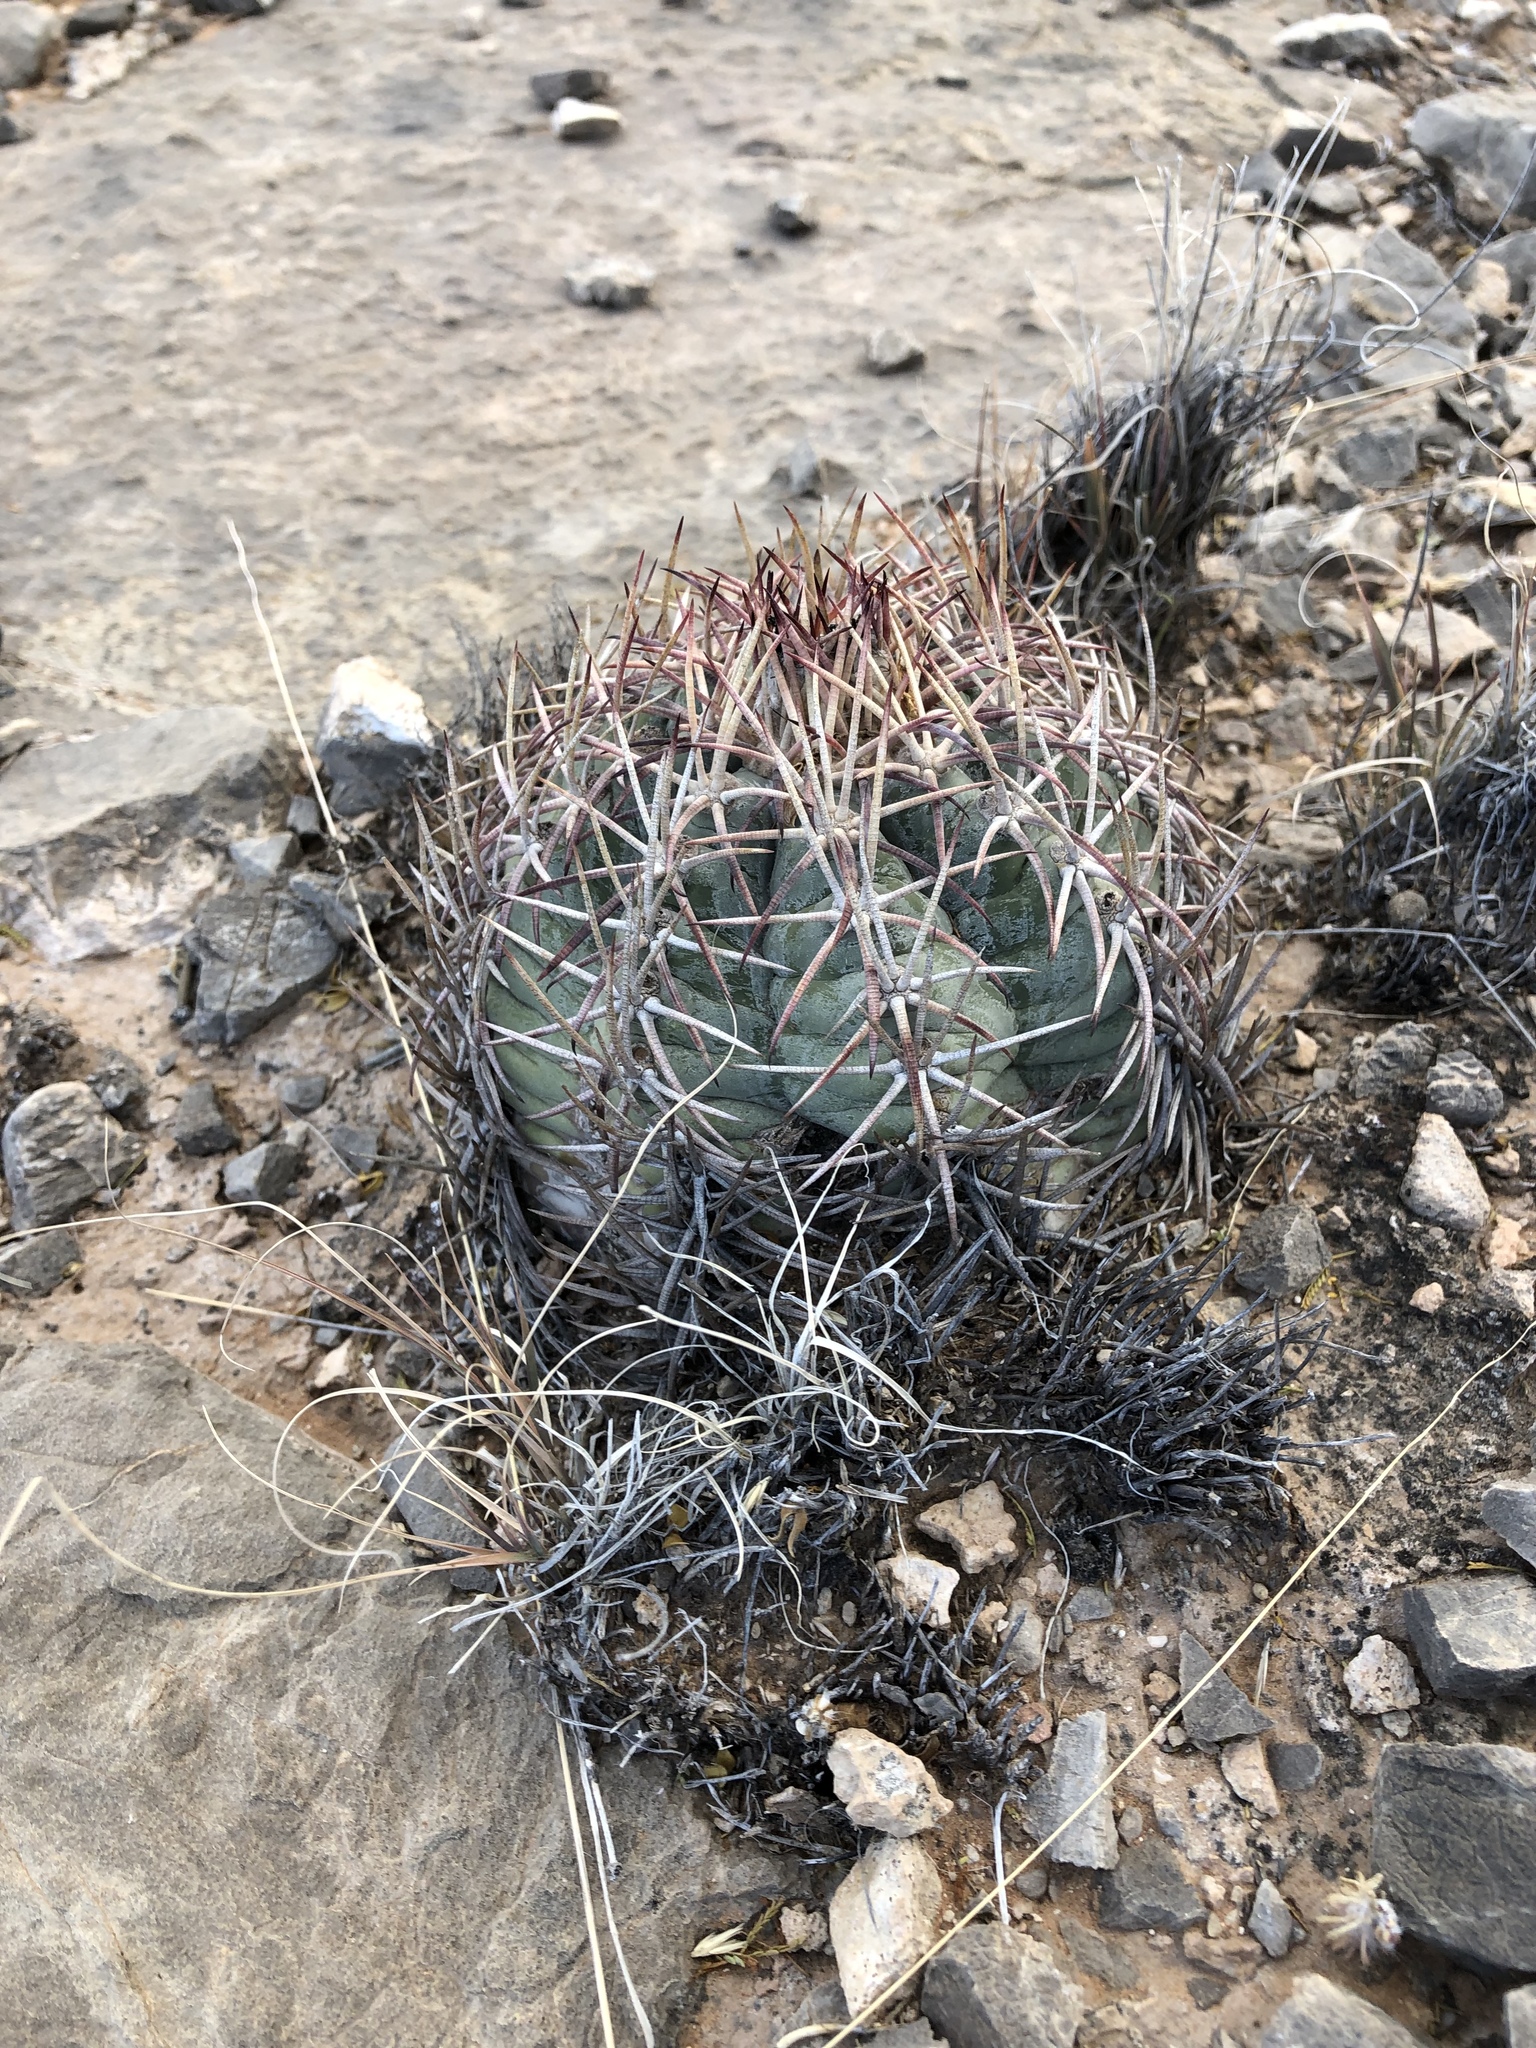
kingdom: Plantae
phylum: Tracheophyta
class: Magnoliopsida
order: Caryophyllales
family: Cactaceae
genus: Echinocactus
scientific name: Echinocactus horizonthalonius
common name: Devilshead
